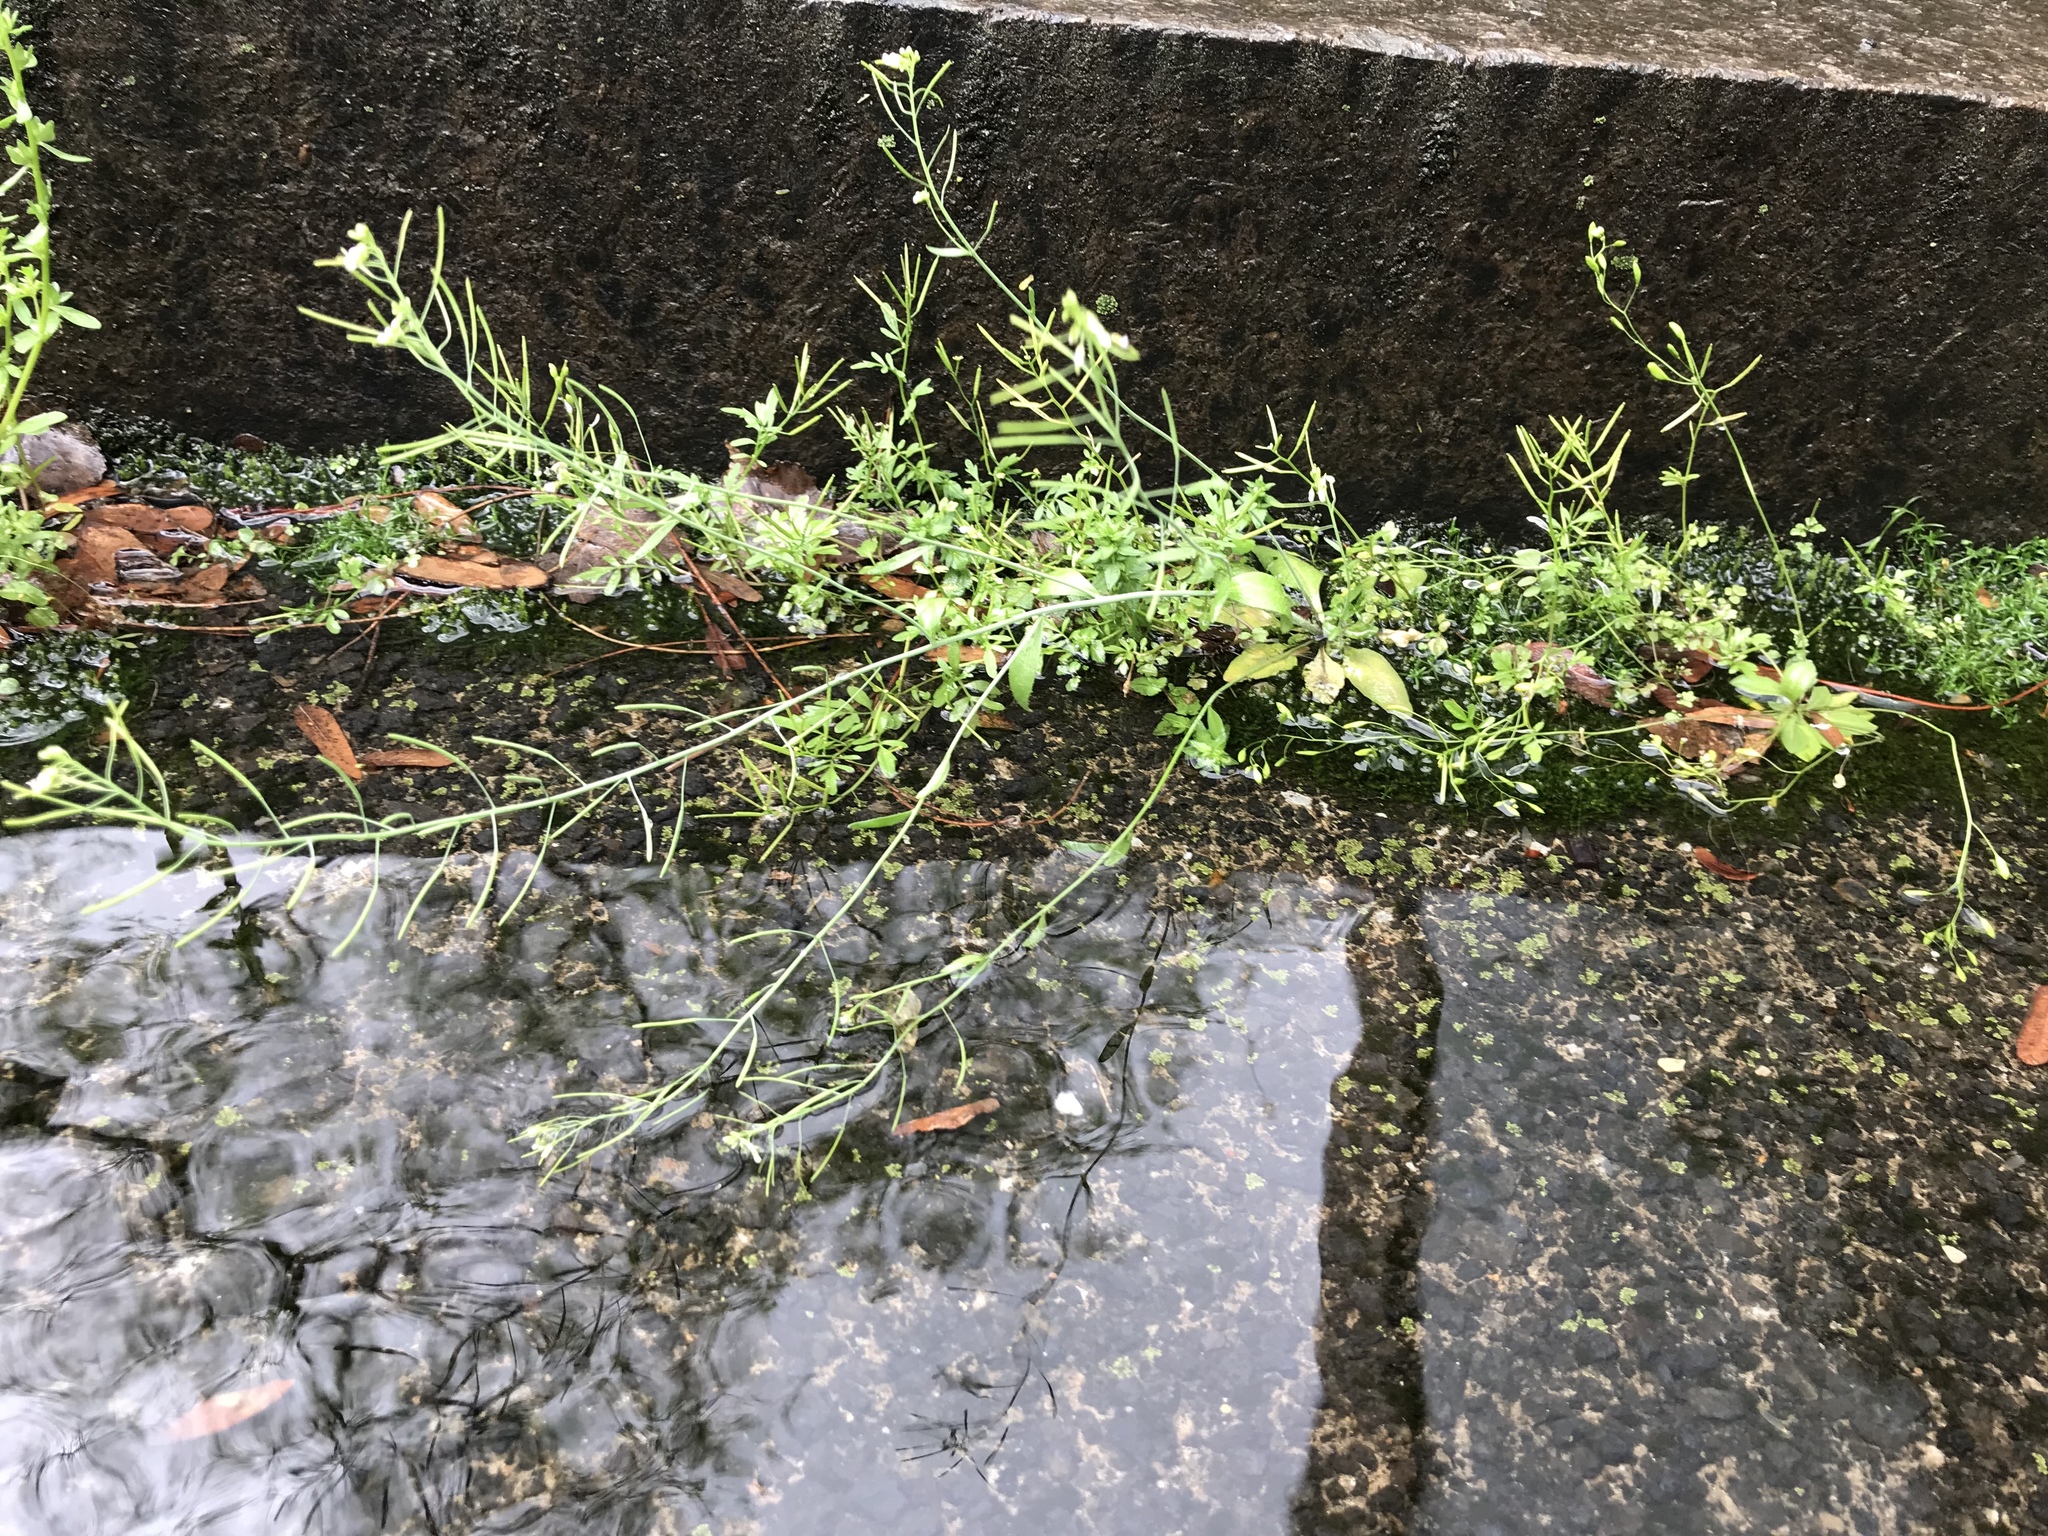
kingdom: Plantae
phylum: Tracheophyta
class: Magnoliopsida
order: Brassicales
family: Brassicaceae
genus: Arabidopsis
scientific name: Arabidopsis thaliana
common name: Thale cress
